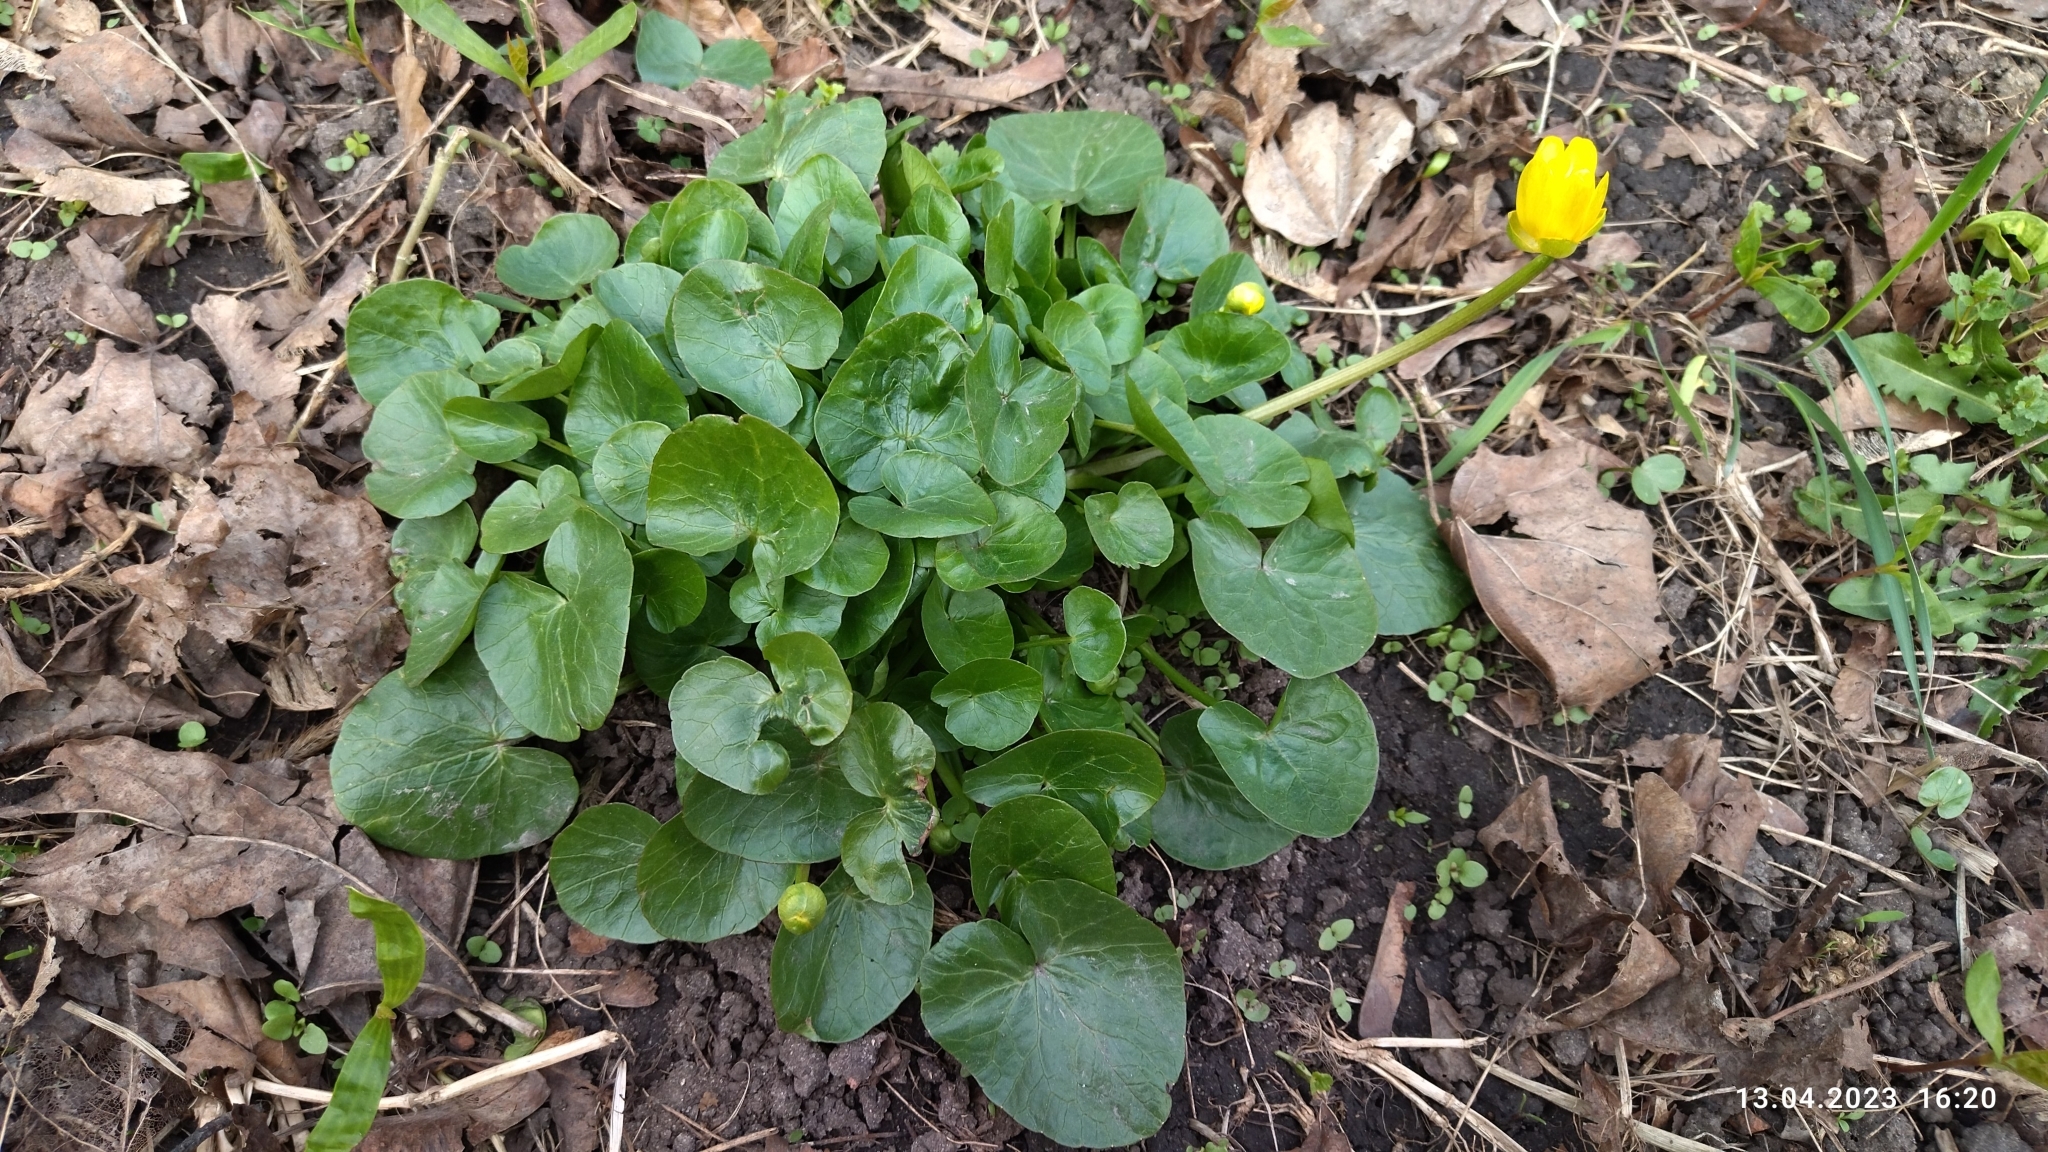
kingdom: Plantae
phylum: Tracheophyta
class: Magnoliopsida
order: Ranunculales
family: Ranunculaceae
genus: Ficaria
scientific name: Ficaria verna
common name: Lesser celandine
